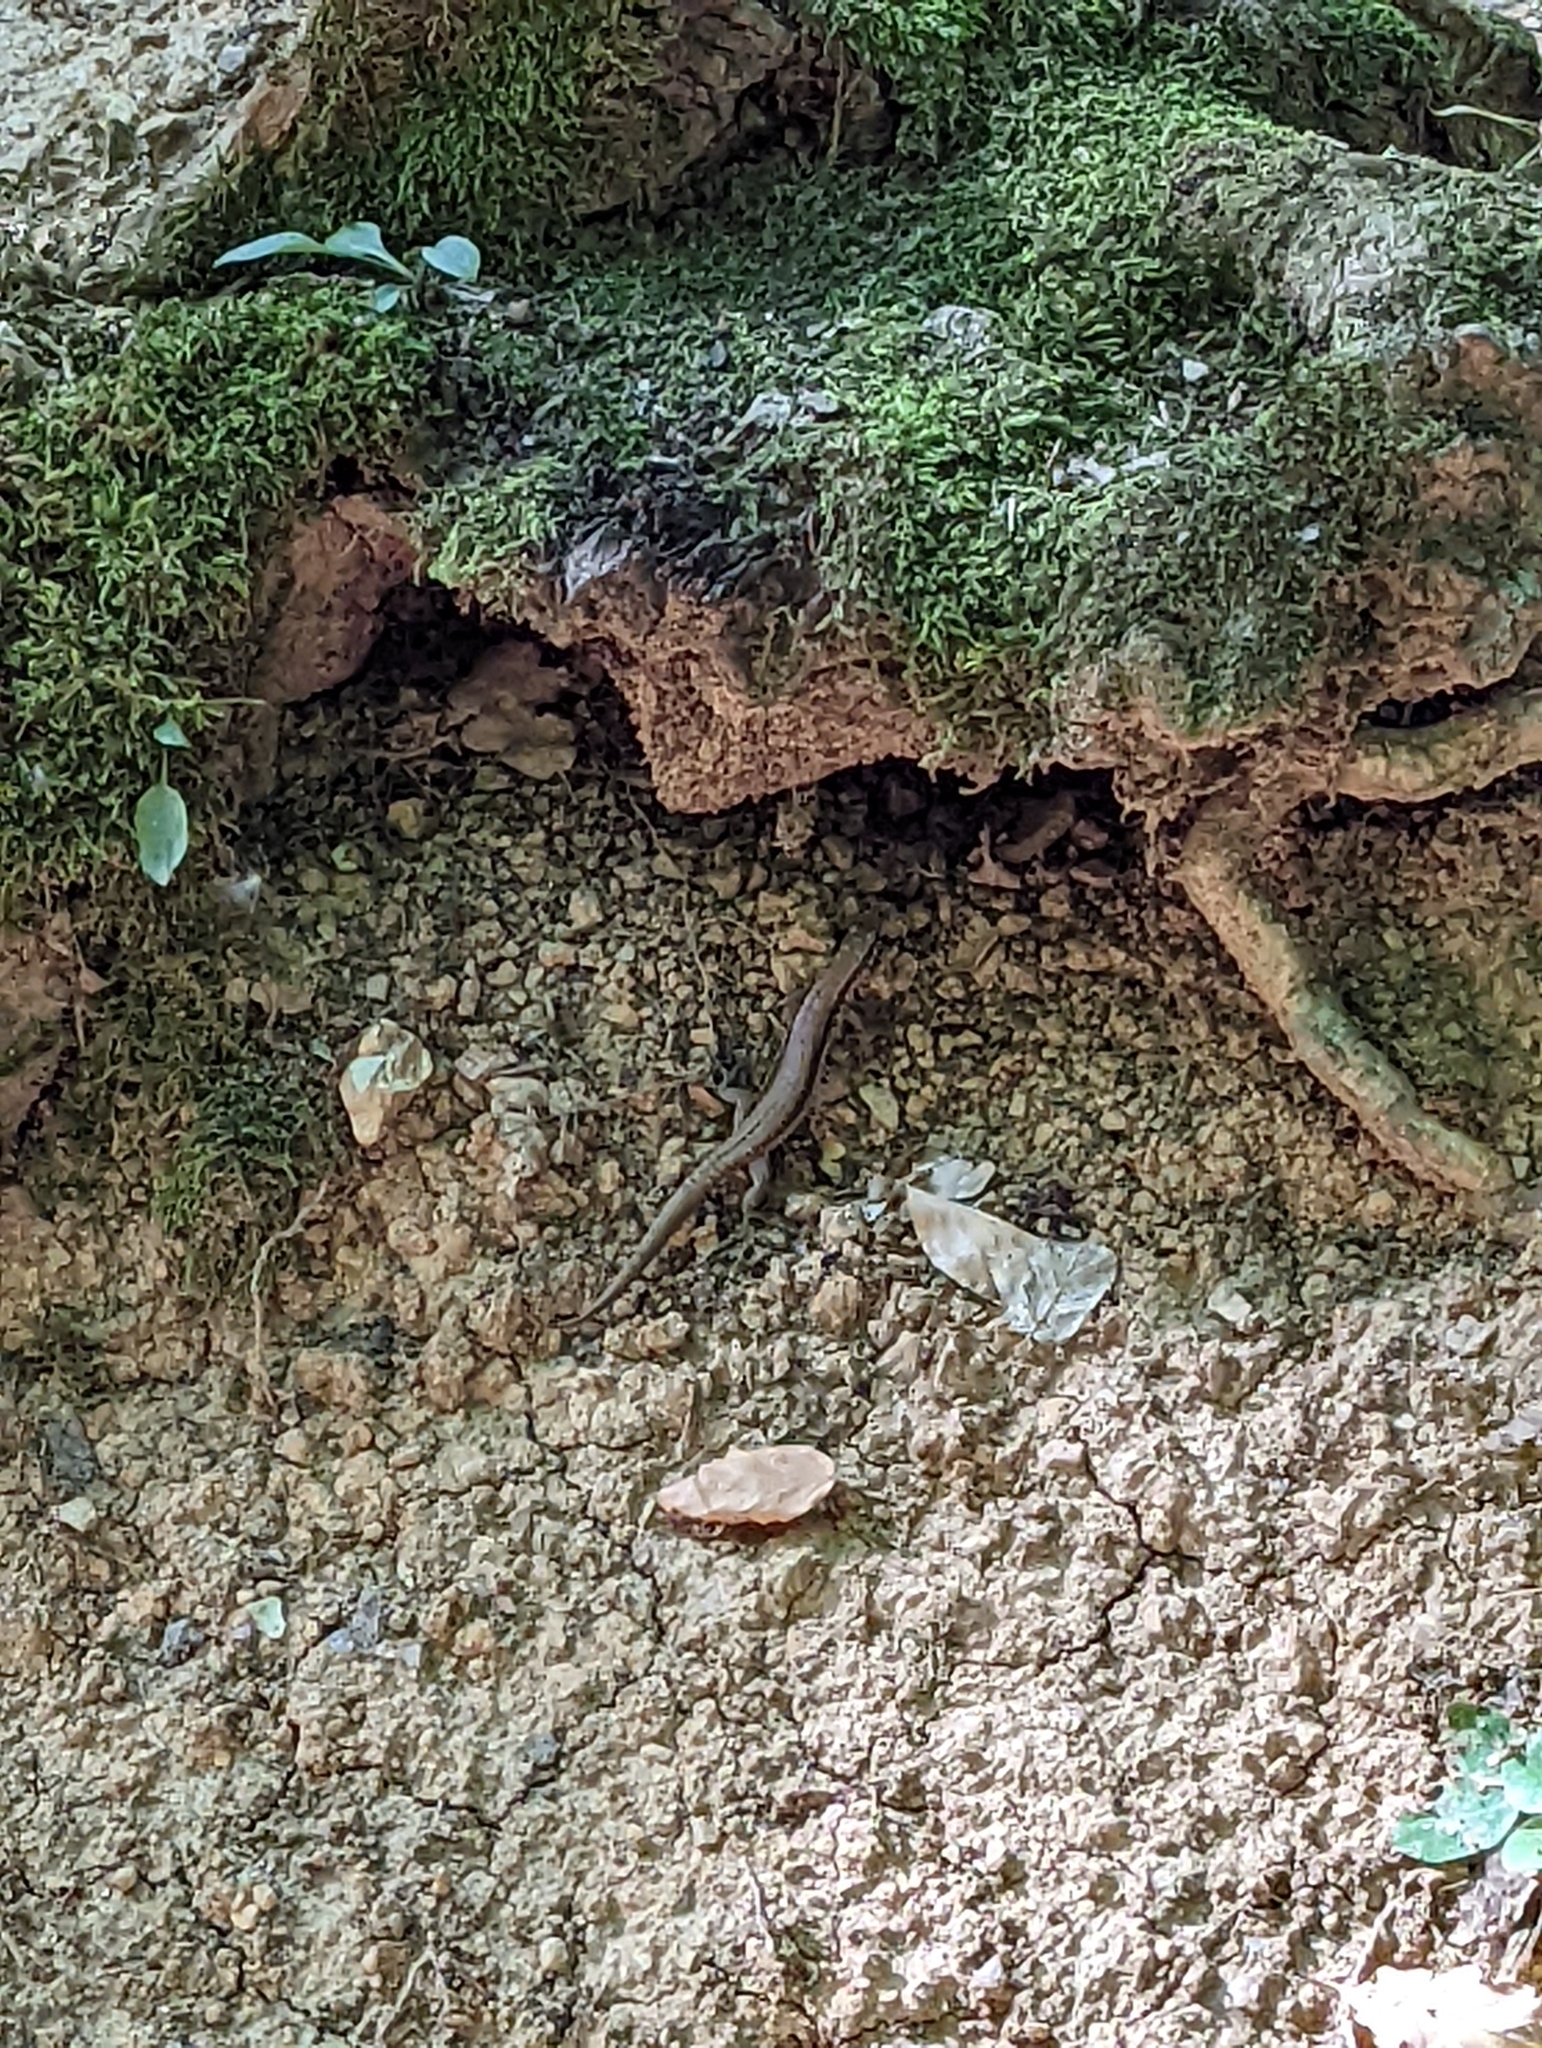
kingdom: Animalia
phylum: Chordata
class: Squamata
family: Lacertidae
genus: Podarcis
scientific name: Podarcis muralis
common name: Common wall lizard
